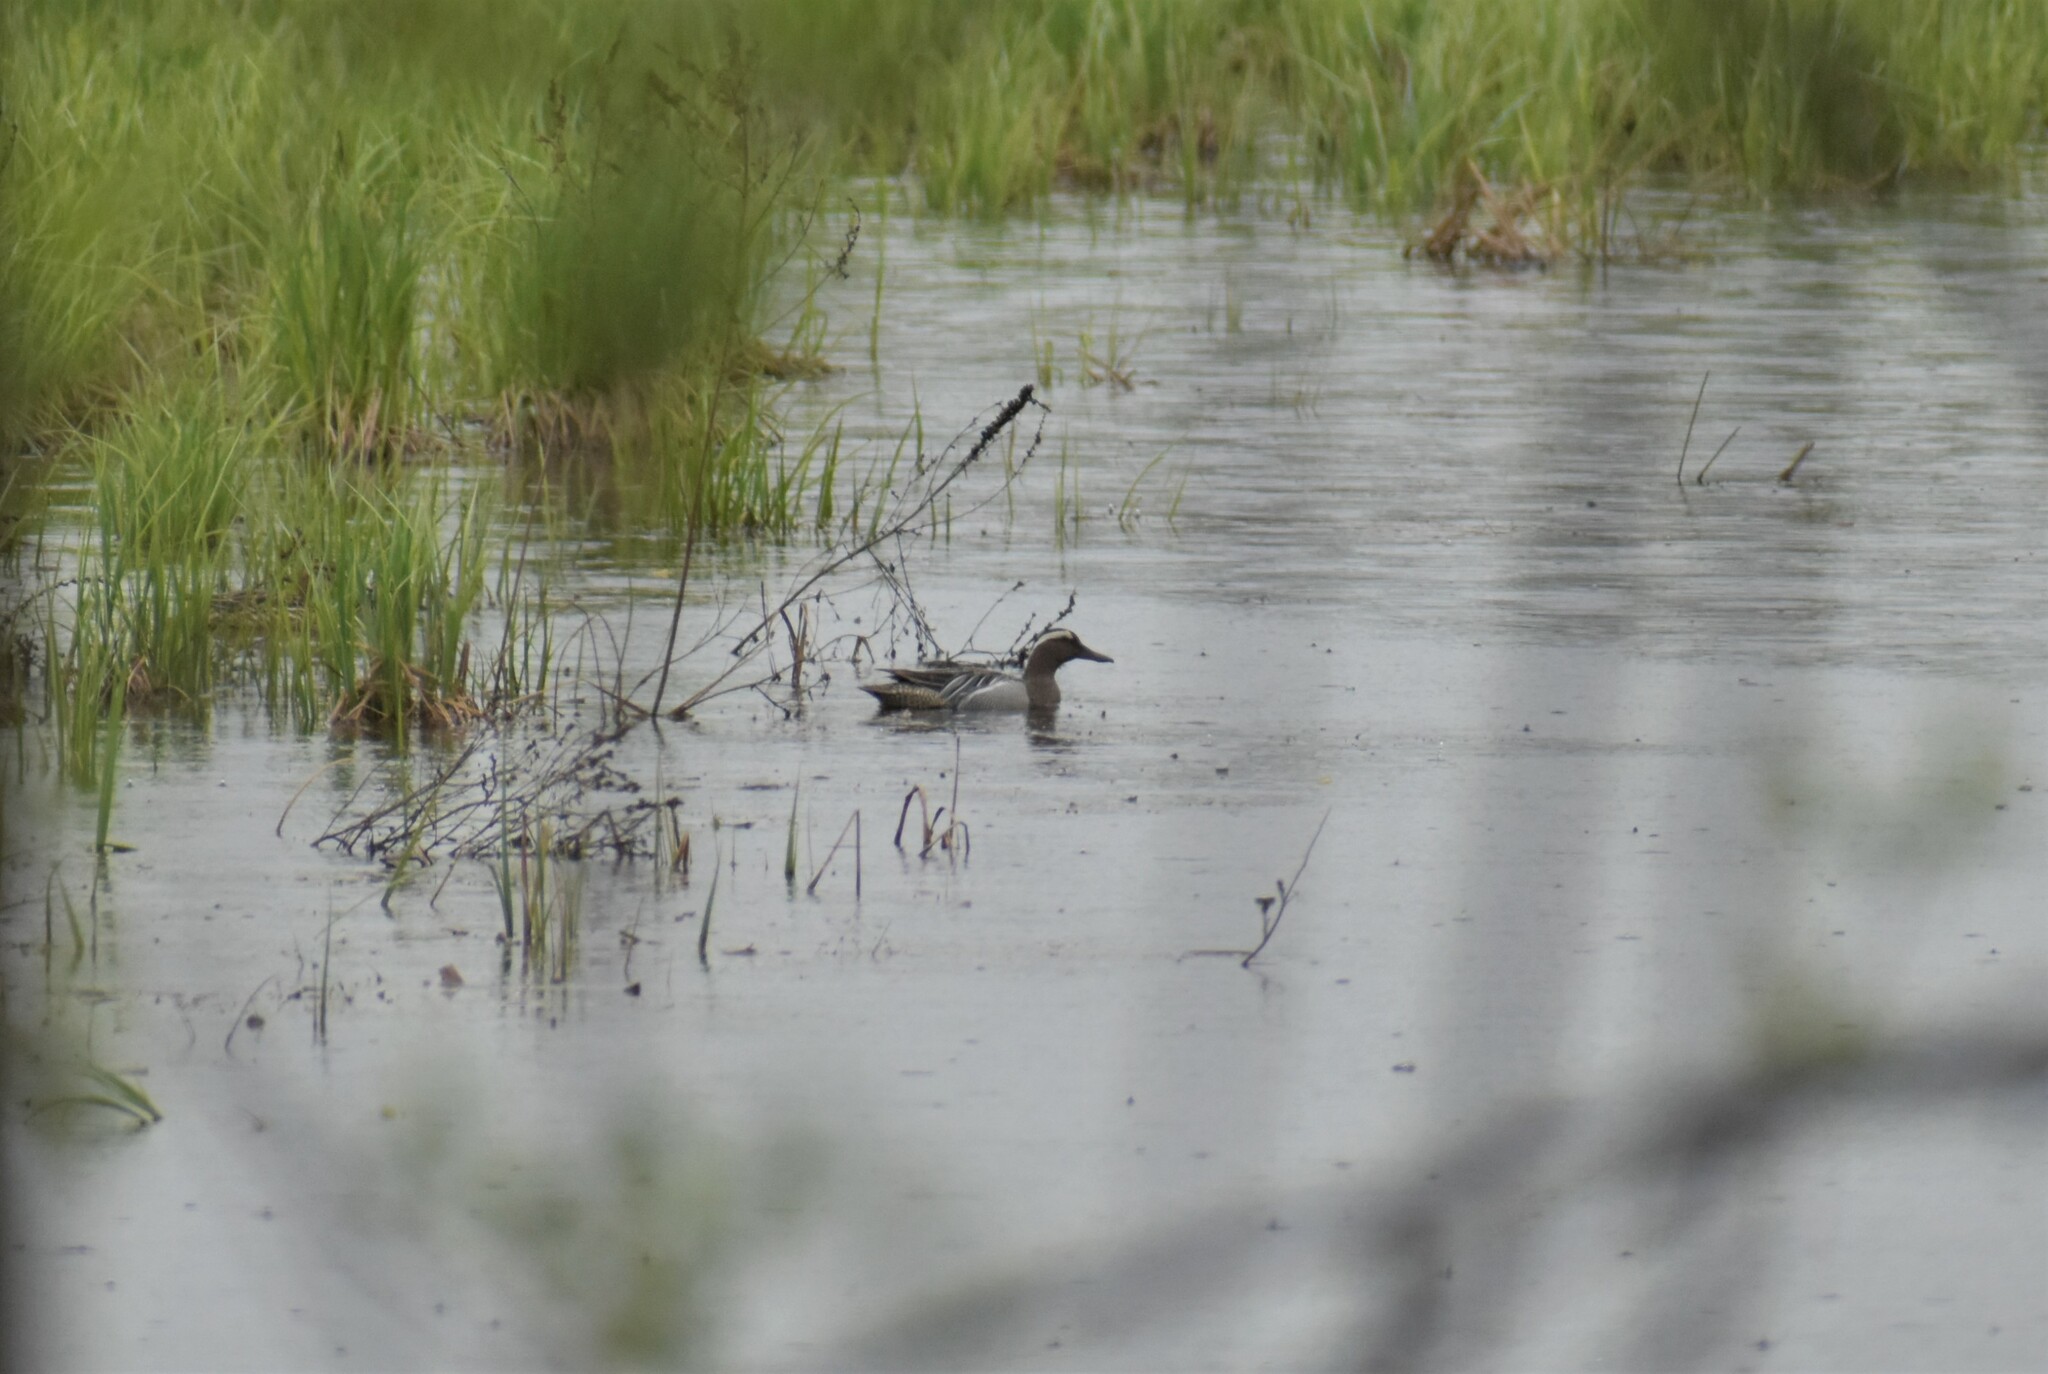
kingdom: Animalia
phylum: Chordata
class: Aves
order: Anseriformes
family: Anatidae
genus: Spatula
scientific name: Spatula querquedula
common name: Garganey
